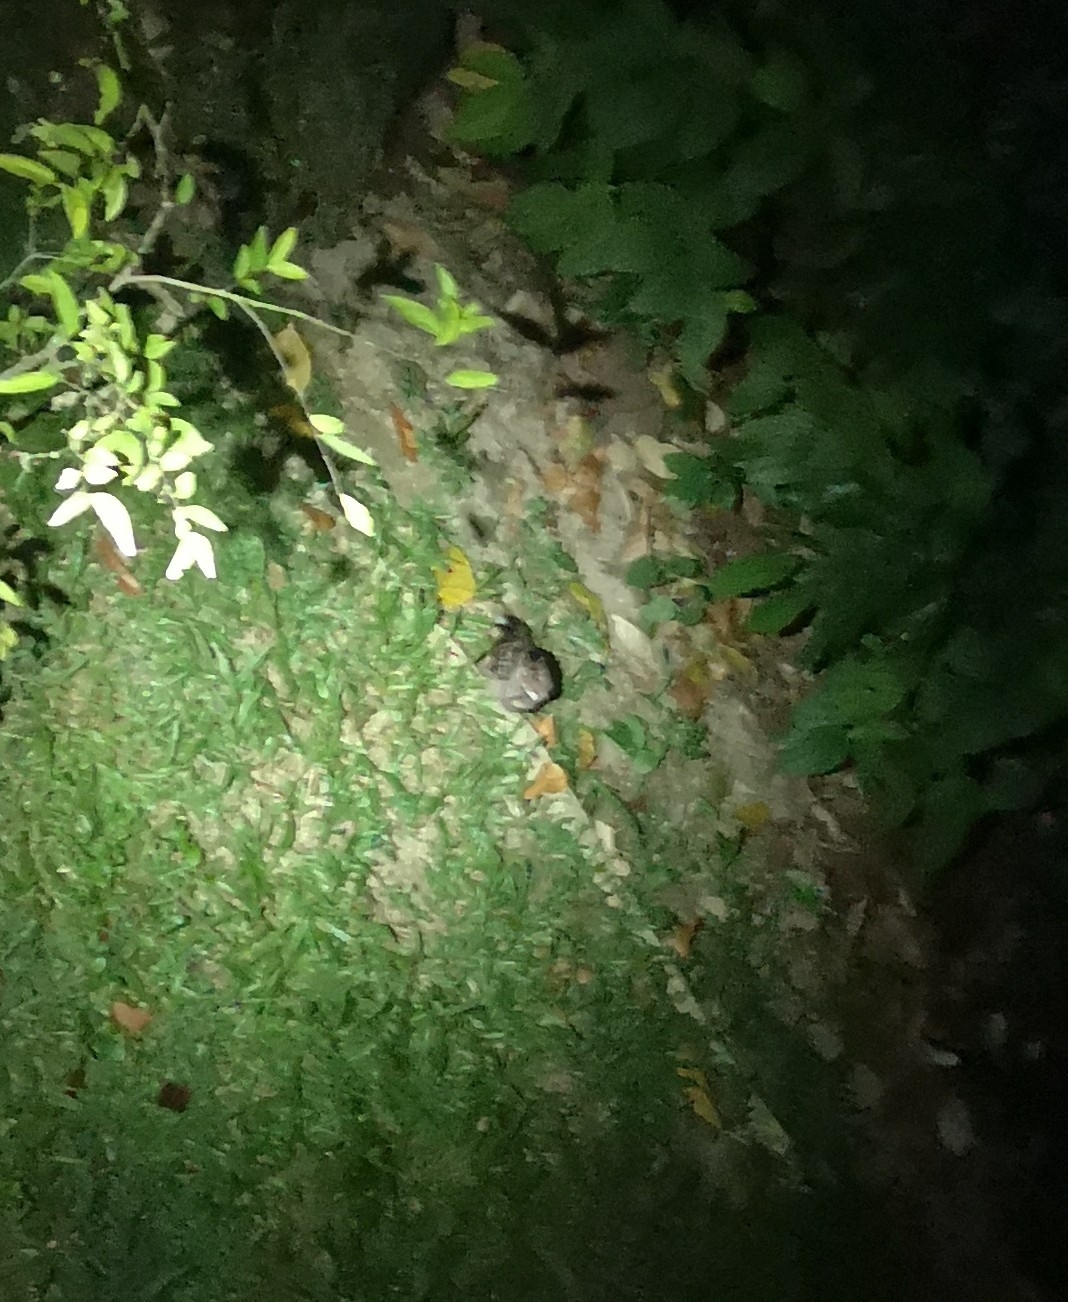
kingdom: Animalia
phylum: Chordata
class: Aves
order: Caprimulgiformes
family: Caprimulgidae
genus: Caprimulgus
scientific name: Caprimulgus macrurus
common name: Large-tailed nightjar
